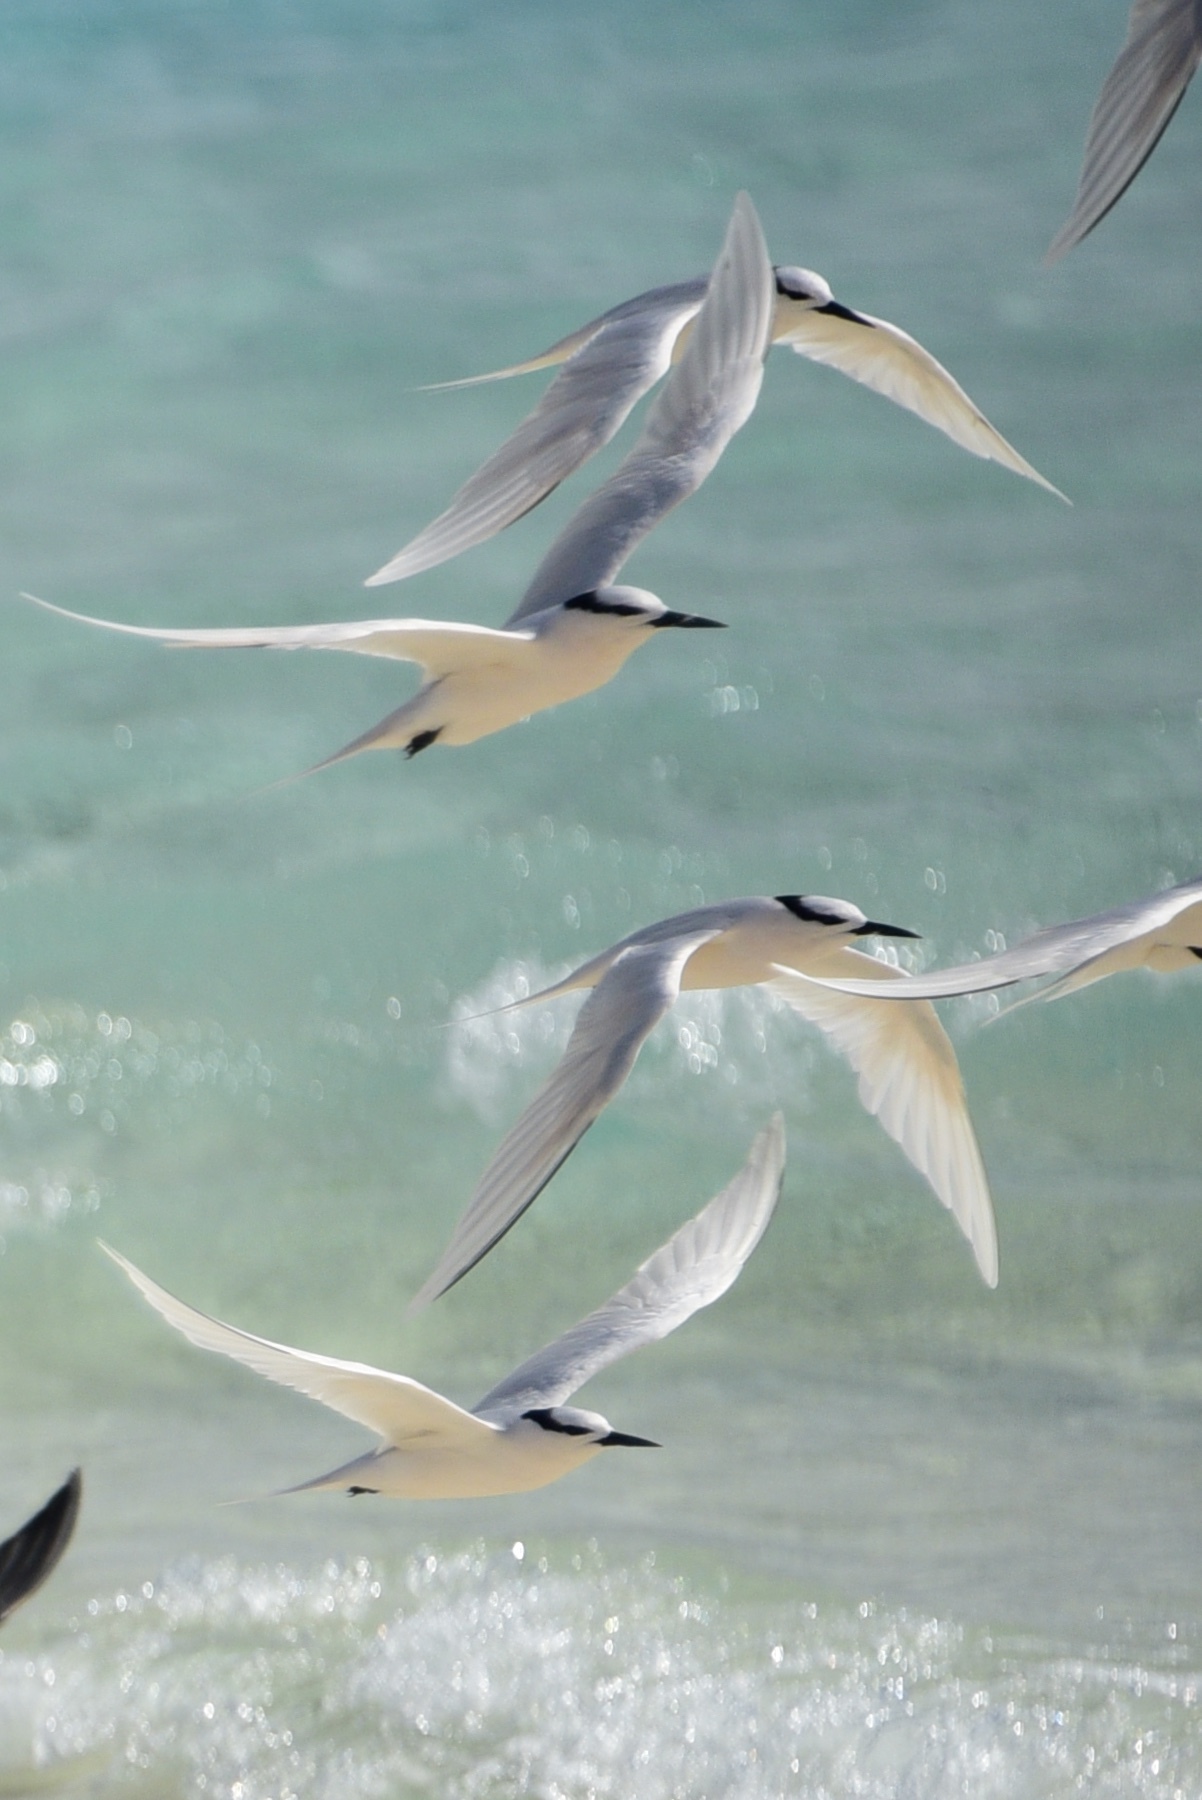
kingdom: Animalia
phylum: Chordata
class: Aves
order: Charadriiformes
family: Laridae
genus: Sterna
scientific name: Sterna sumatrana
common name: Black-naped tern
